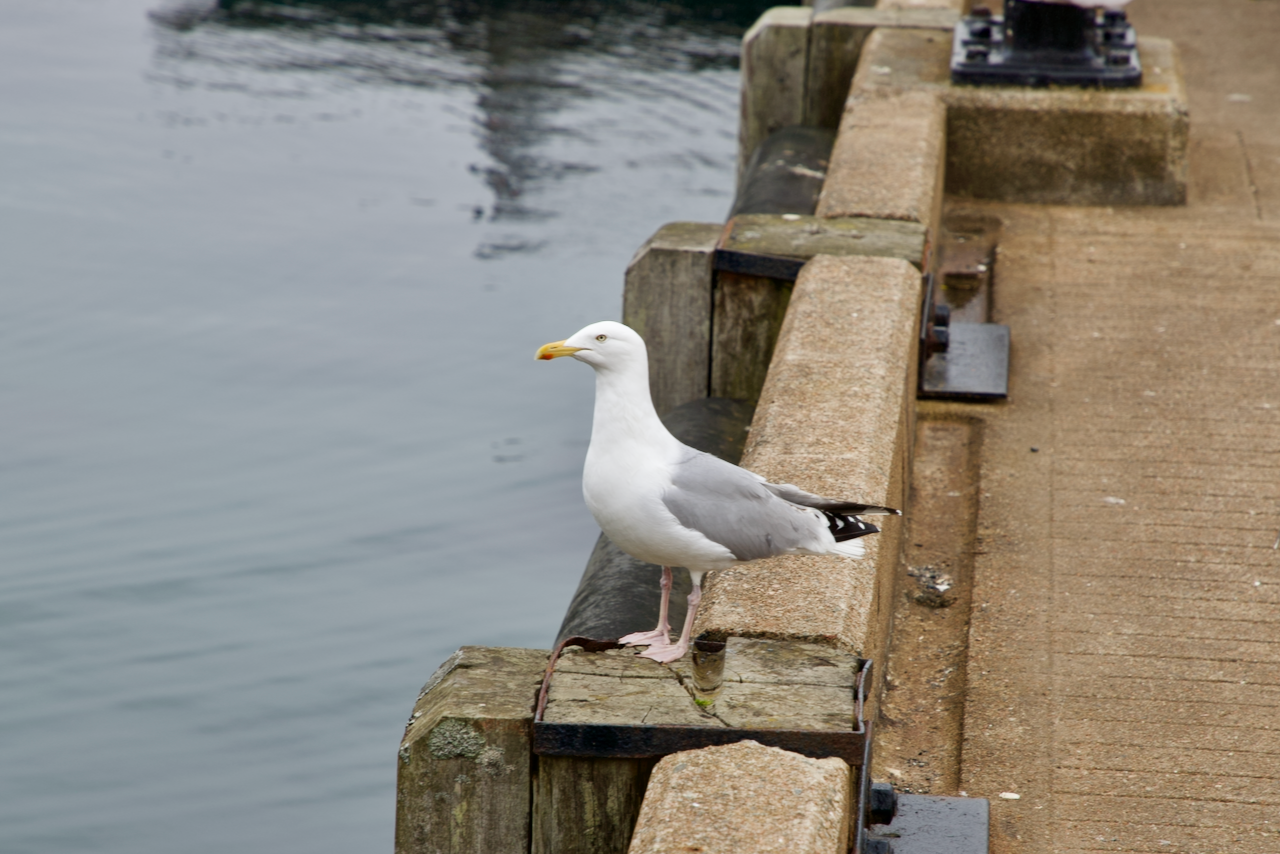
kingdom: Animalia
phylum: Chordata
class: Aves
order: Charadriiformes
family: Laridae
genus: Larus
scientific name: Larus argentatus
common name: Herring gull
